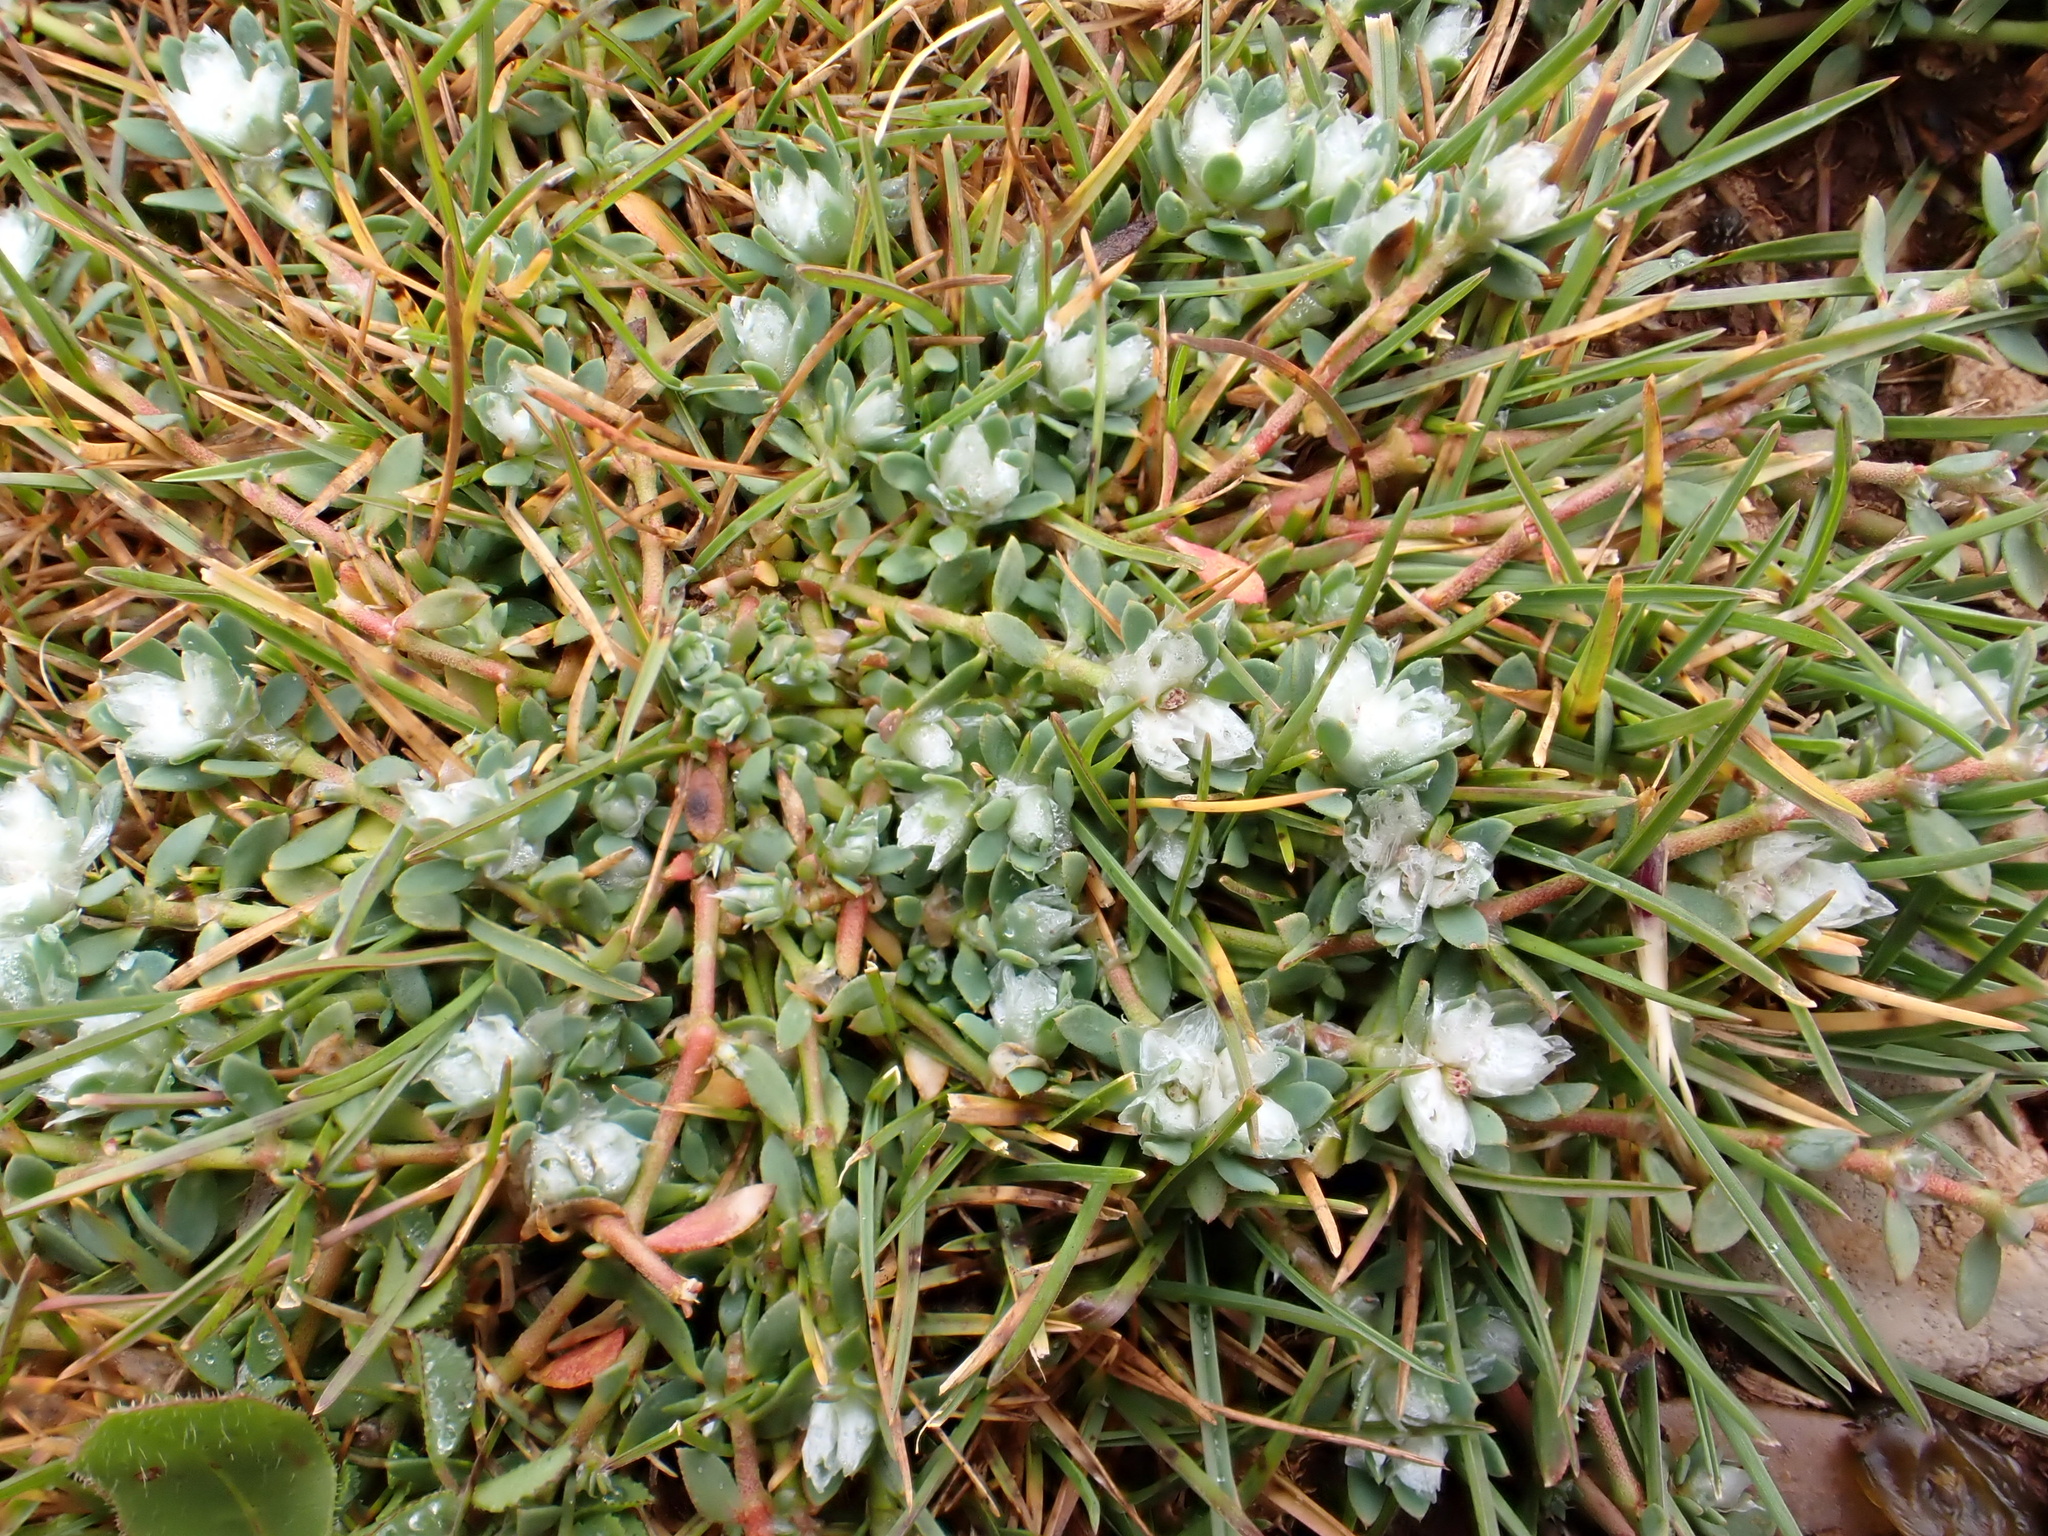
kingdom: Plantae
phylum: Tracheophyta
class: Magnoliopsida
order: Caryophyllales
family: Caryophyllaceae
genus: Paronychia
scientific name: Paronychia argentea
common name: Silver nailroot
